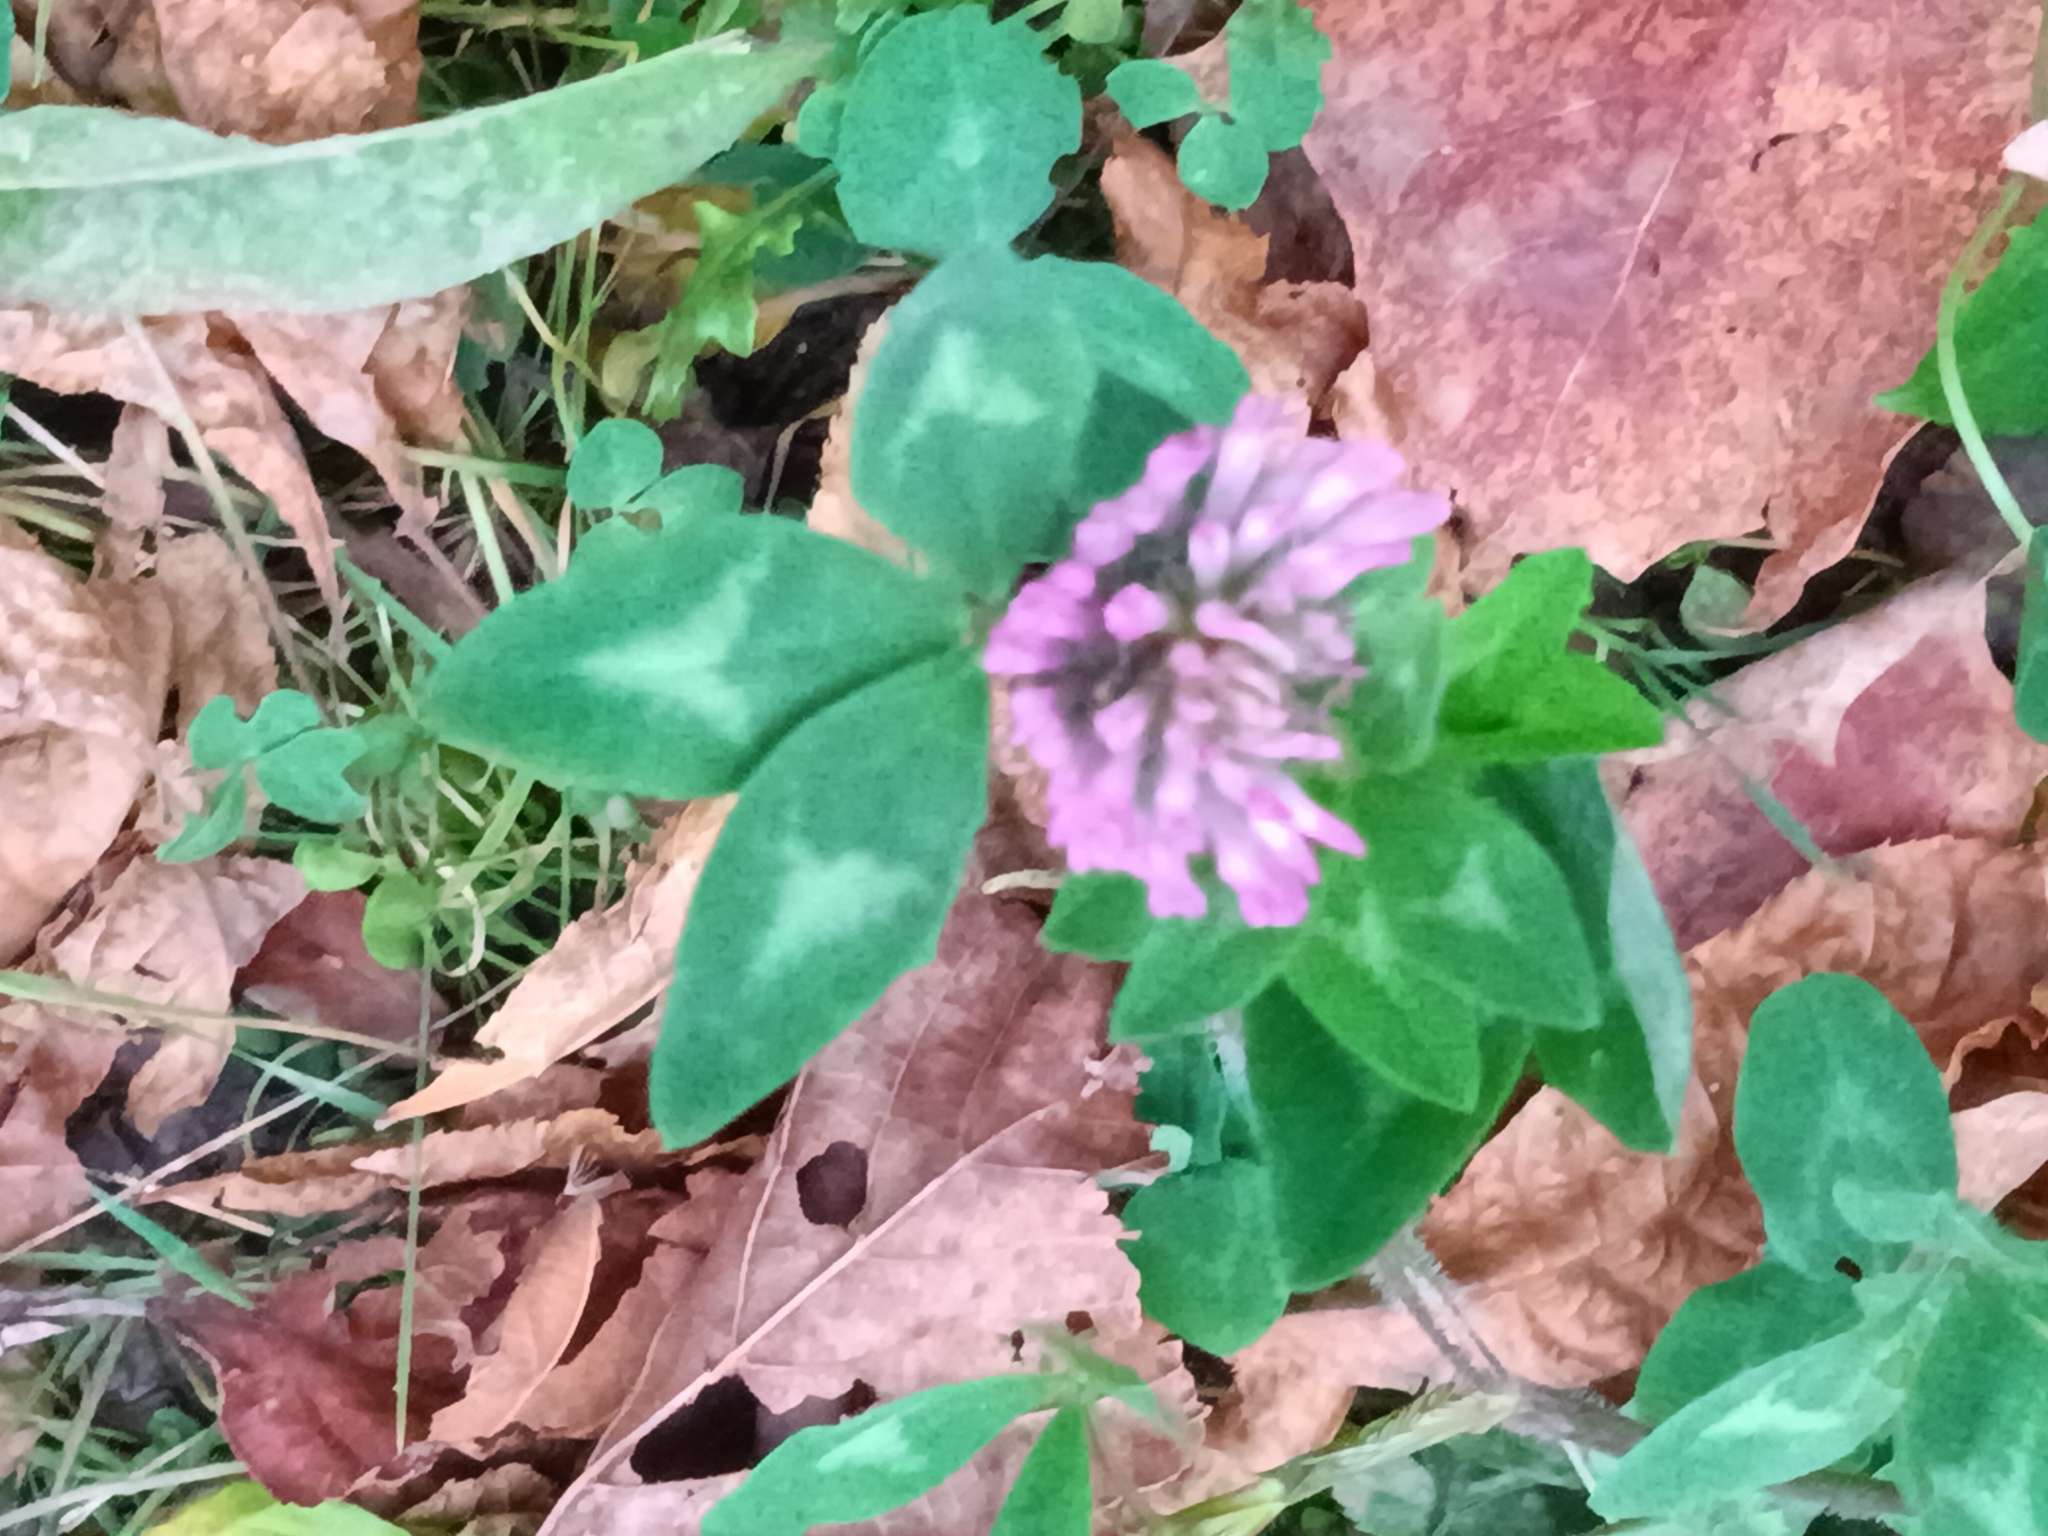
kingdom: Plantae
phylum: Tracheophyta
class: Magnoliopsida
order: Fabales
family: Fabaceae
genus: Trifolium
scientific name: Trifolium pratense
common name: Red clover
